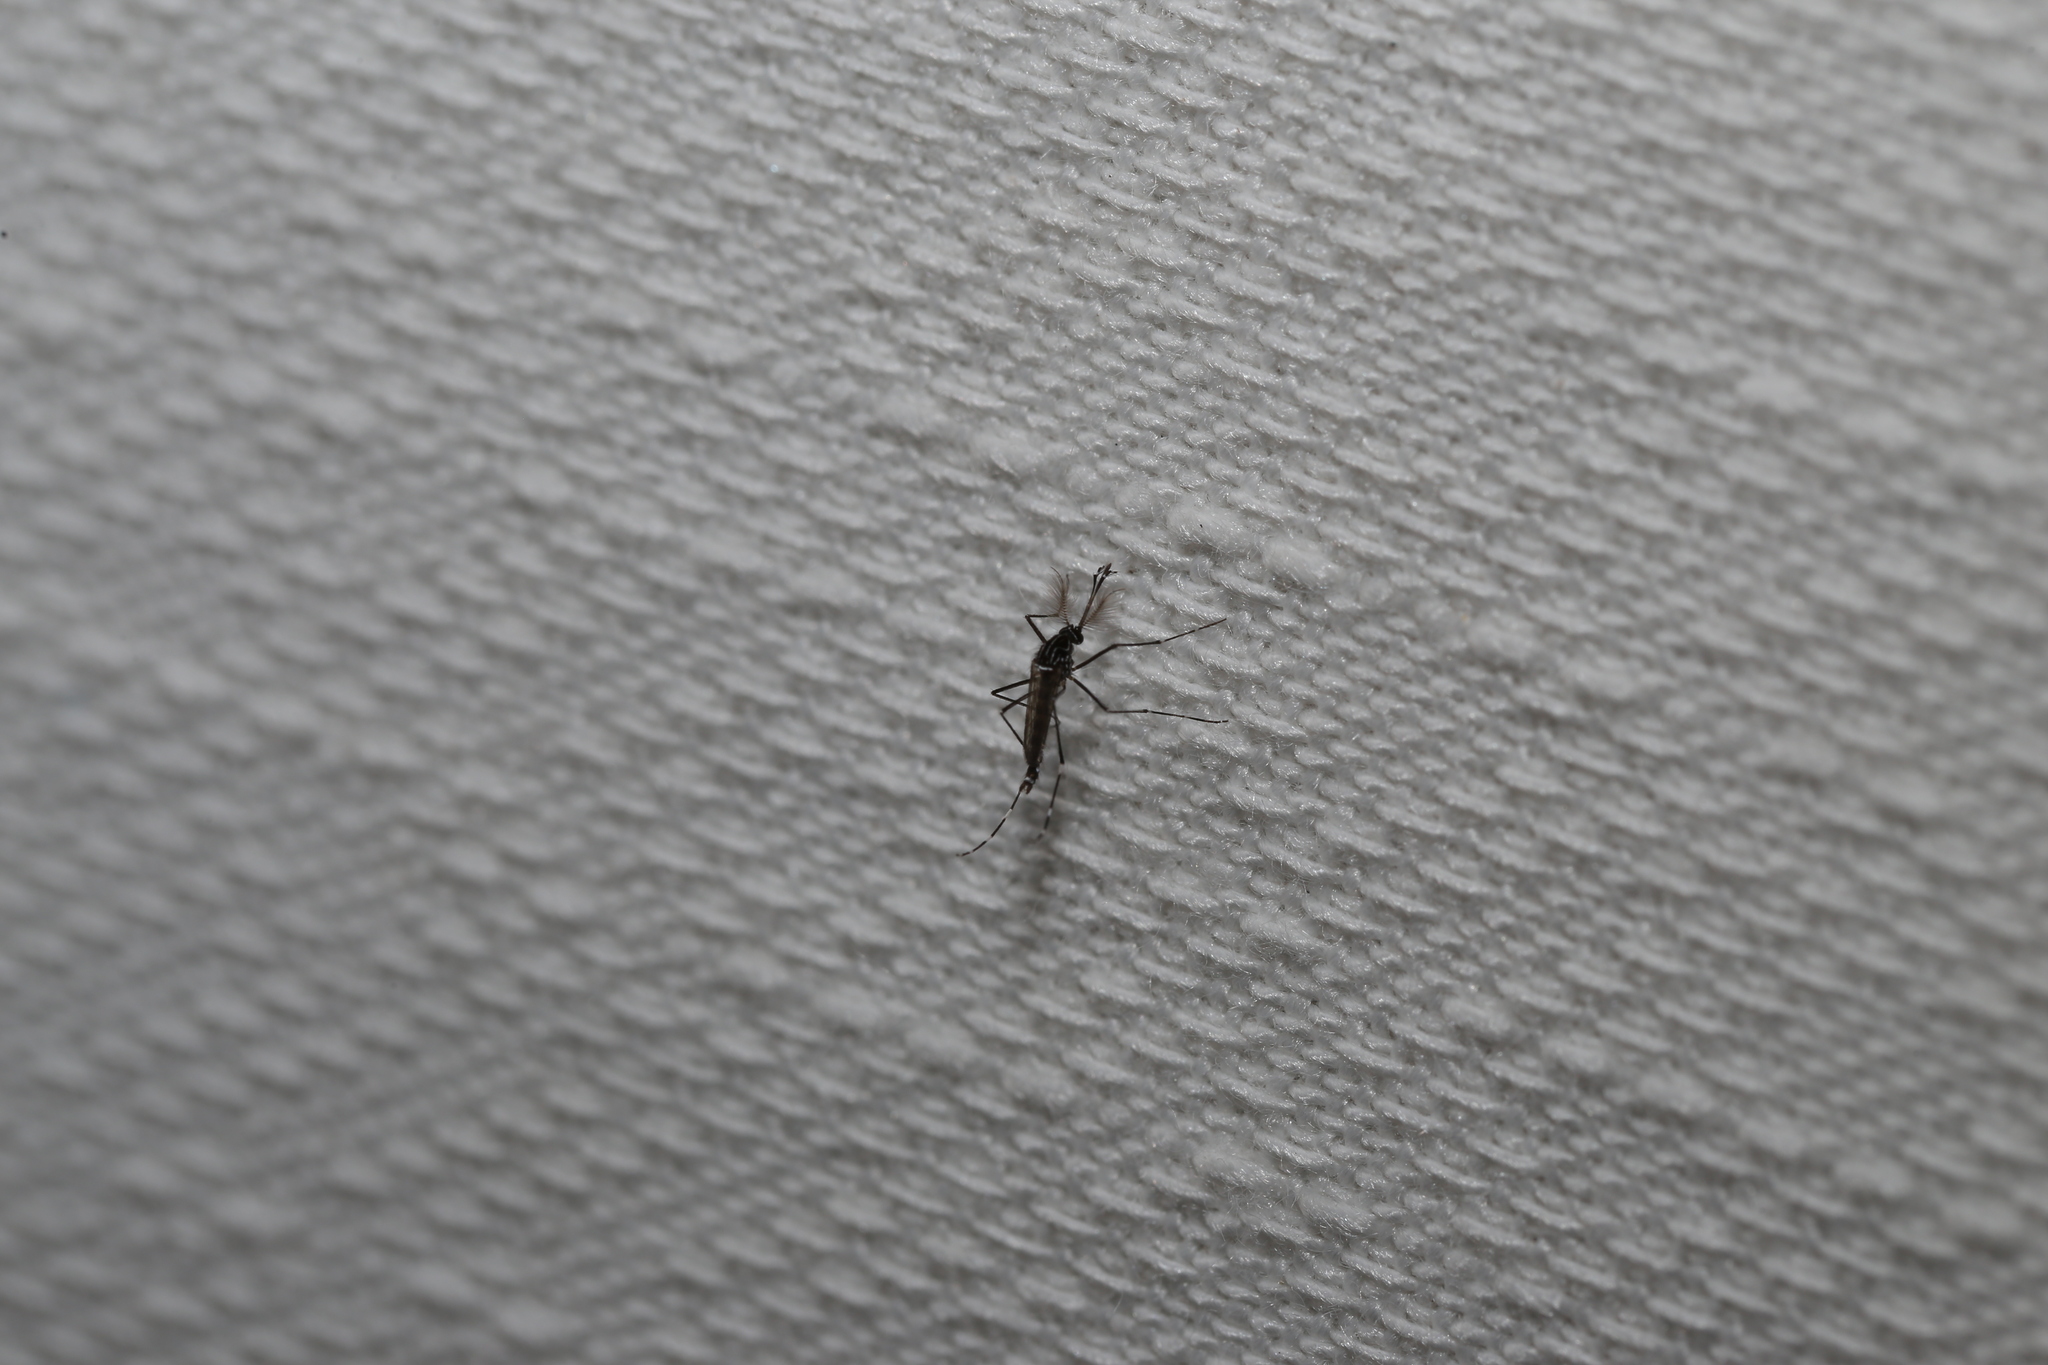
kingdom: Animalia
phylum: Arthropoda
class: Insecta
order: Diptera
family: Culicidae
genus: Aedes
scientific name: Aedes notoscriptus
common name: Australian backyard mosquito
